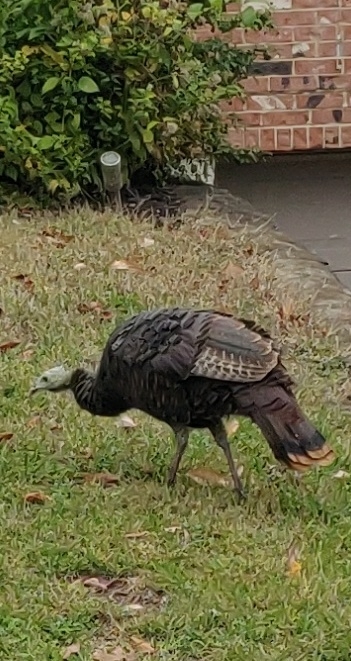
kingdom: Animalia
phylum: Chordata
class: Aves
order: Galliformes
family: Phasianidae
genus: Meleagris
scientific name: Meleagris gallopavo
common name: Wild turkey
